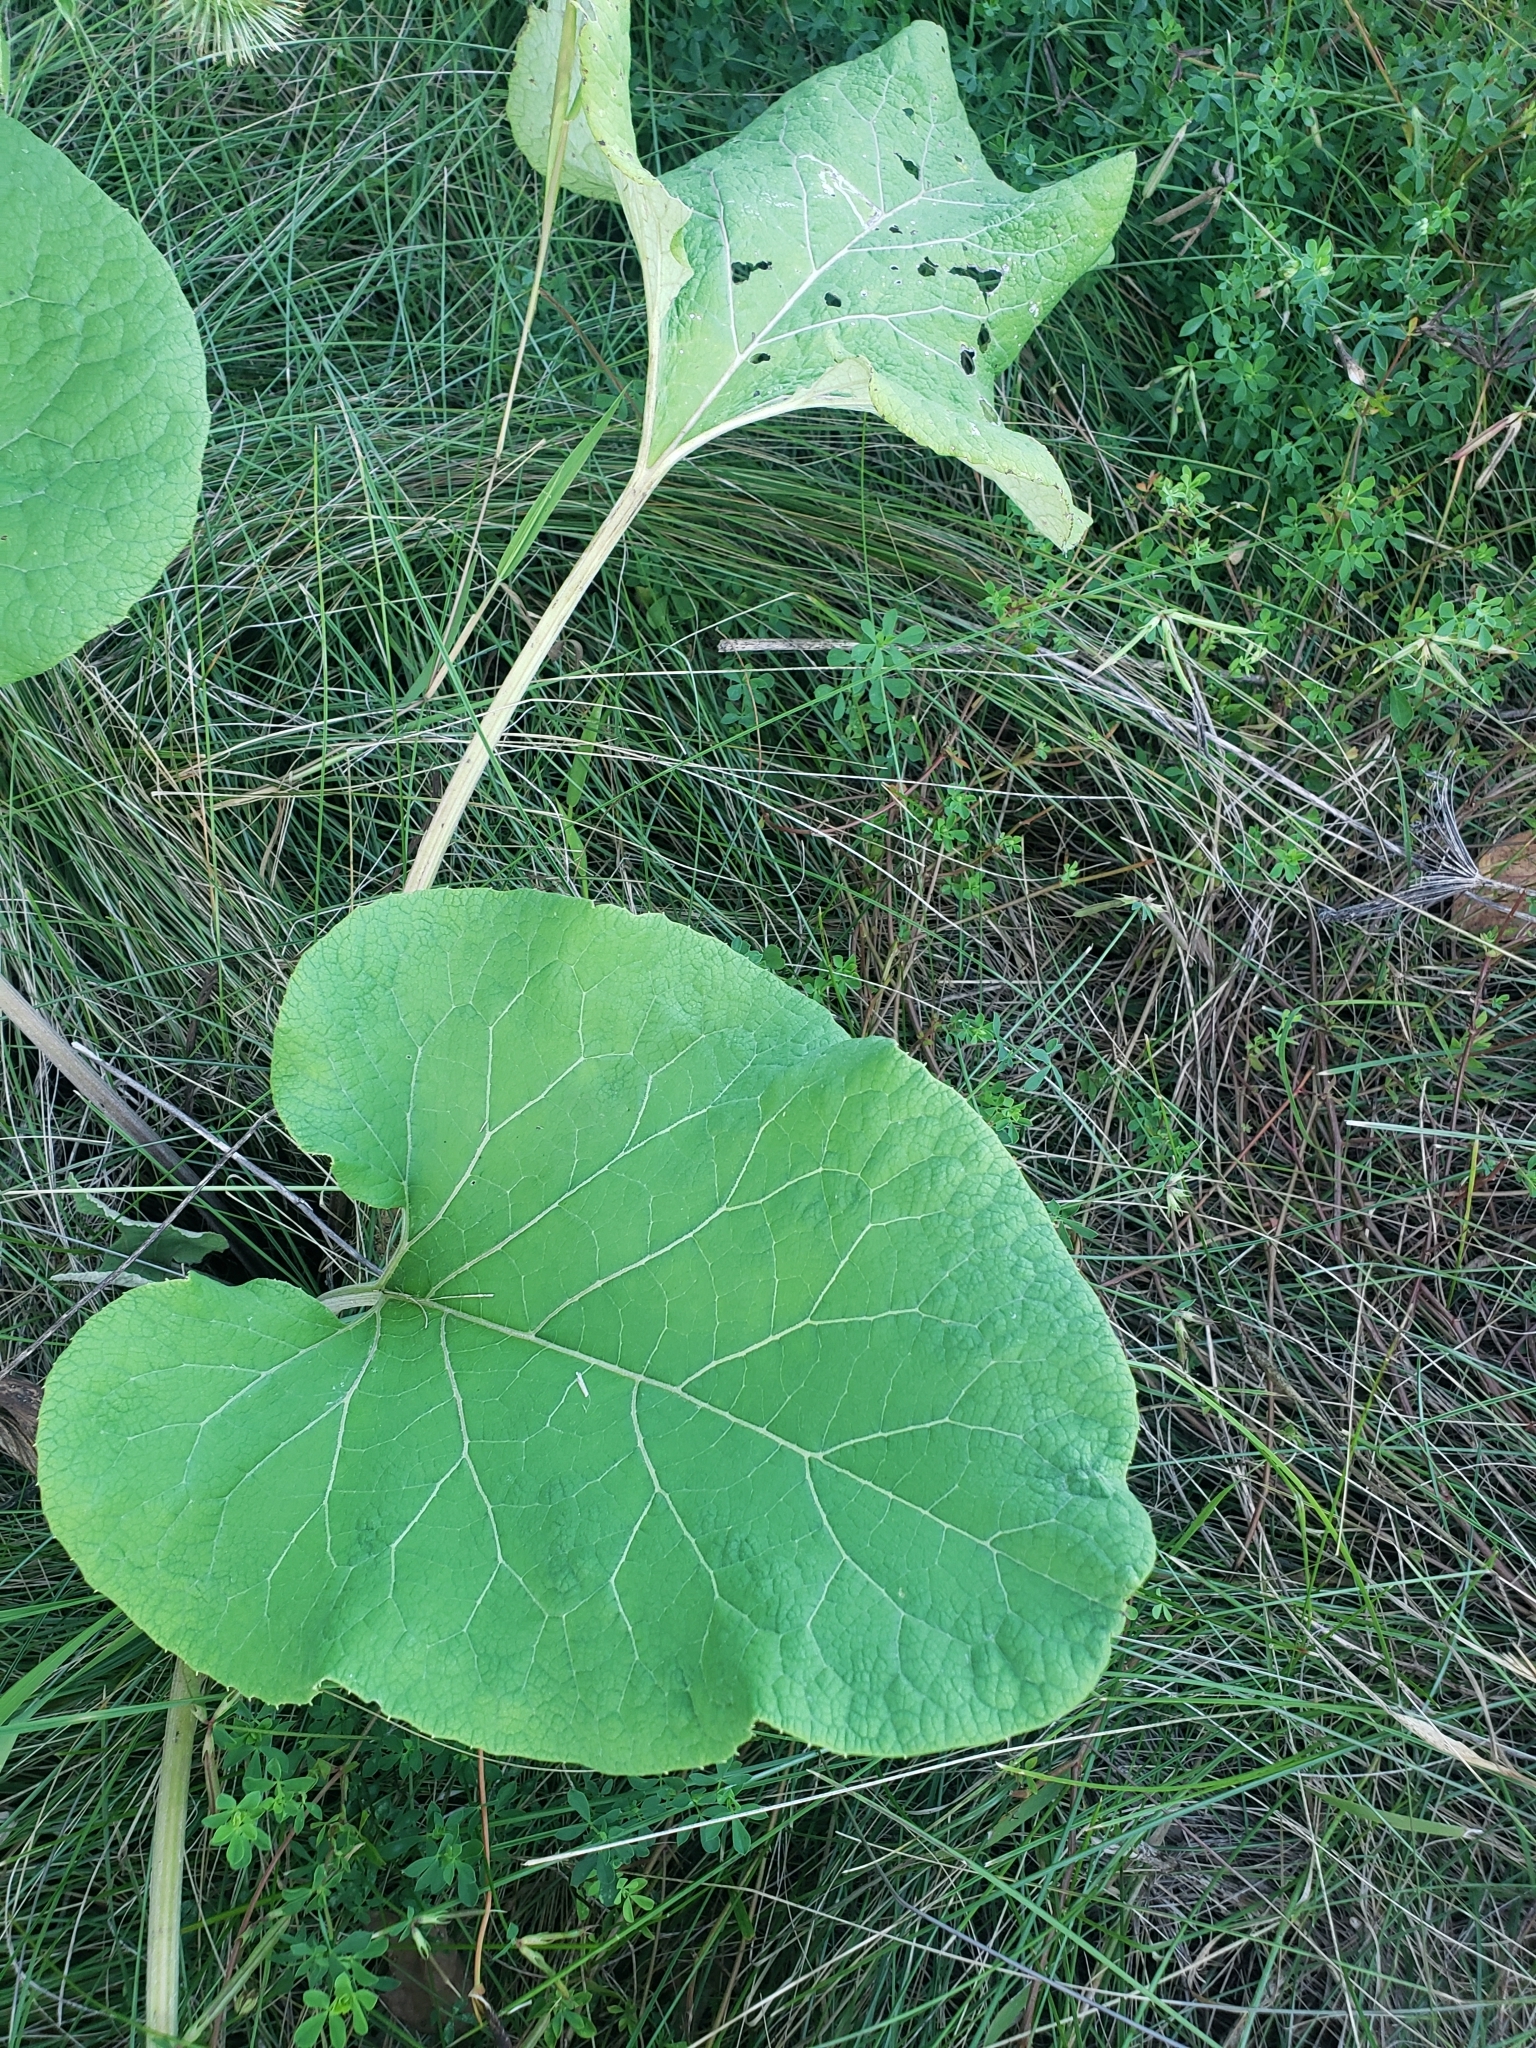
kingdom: Plantae
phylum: Tracheophyta
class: Magnoliopsida
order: Asterales
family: Asteraceae
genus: Arctium
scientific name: Arctium
